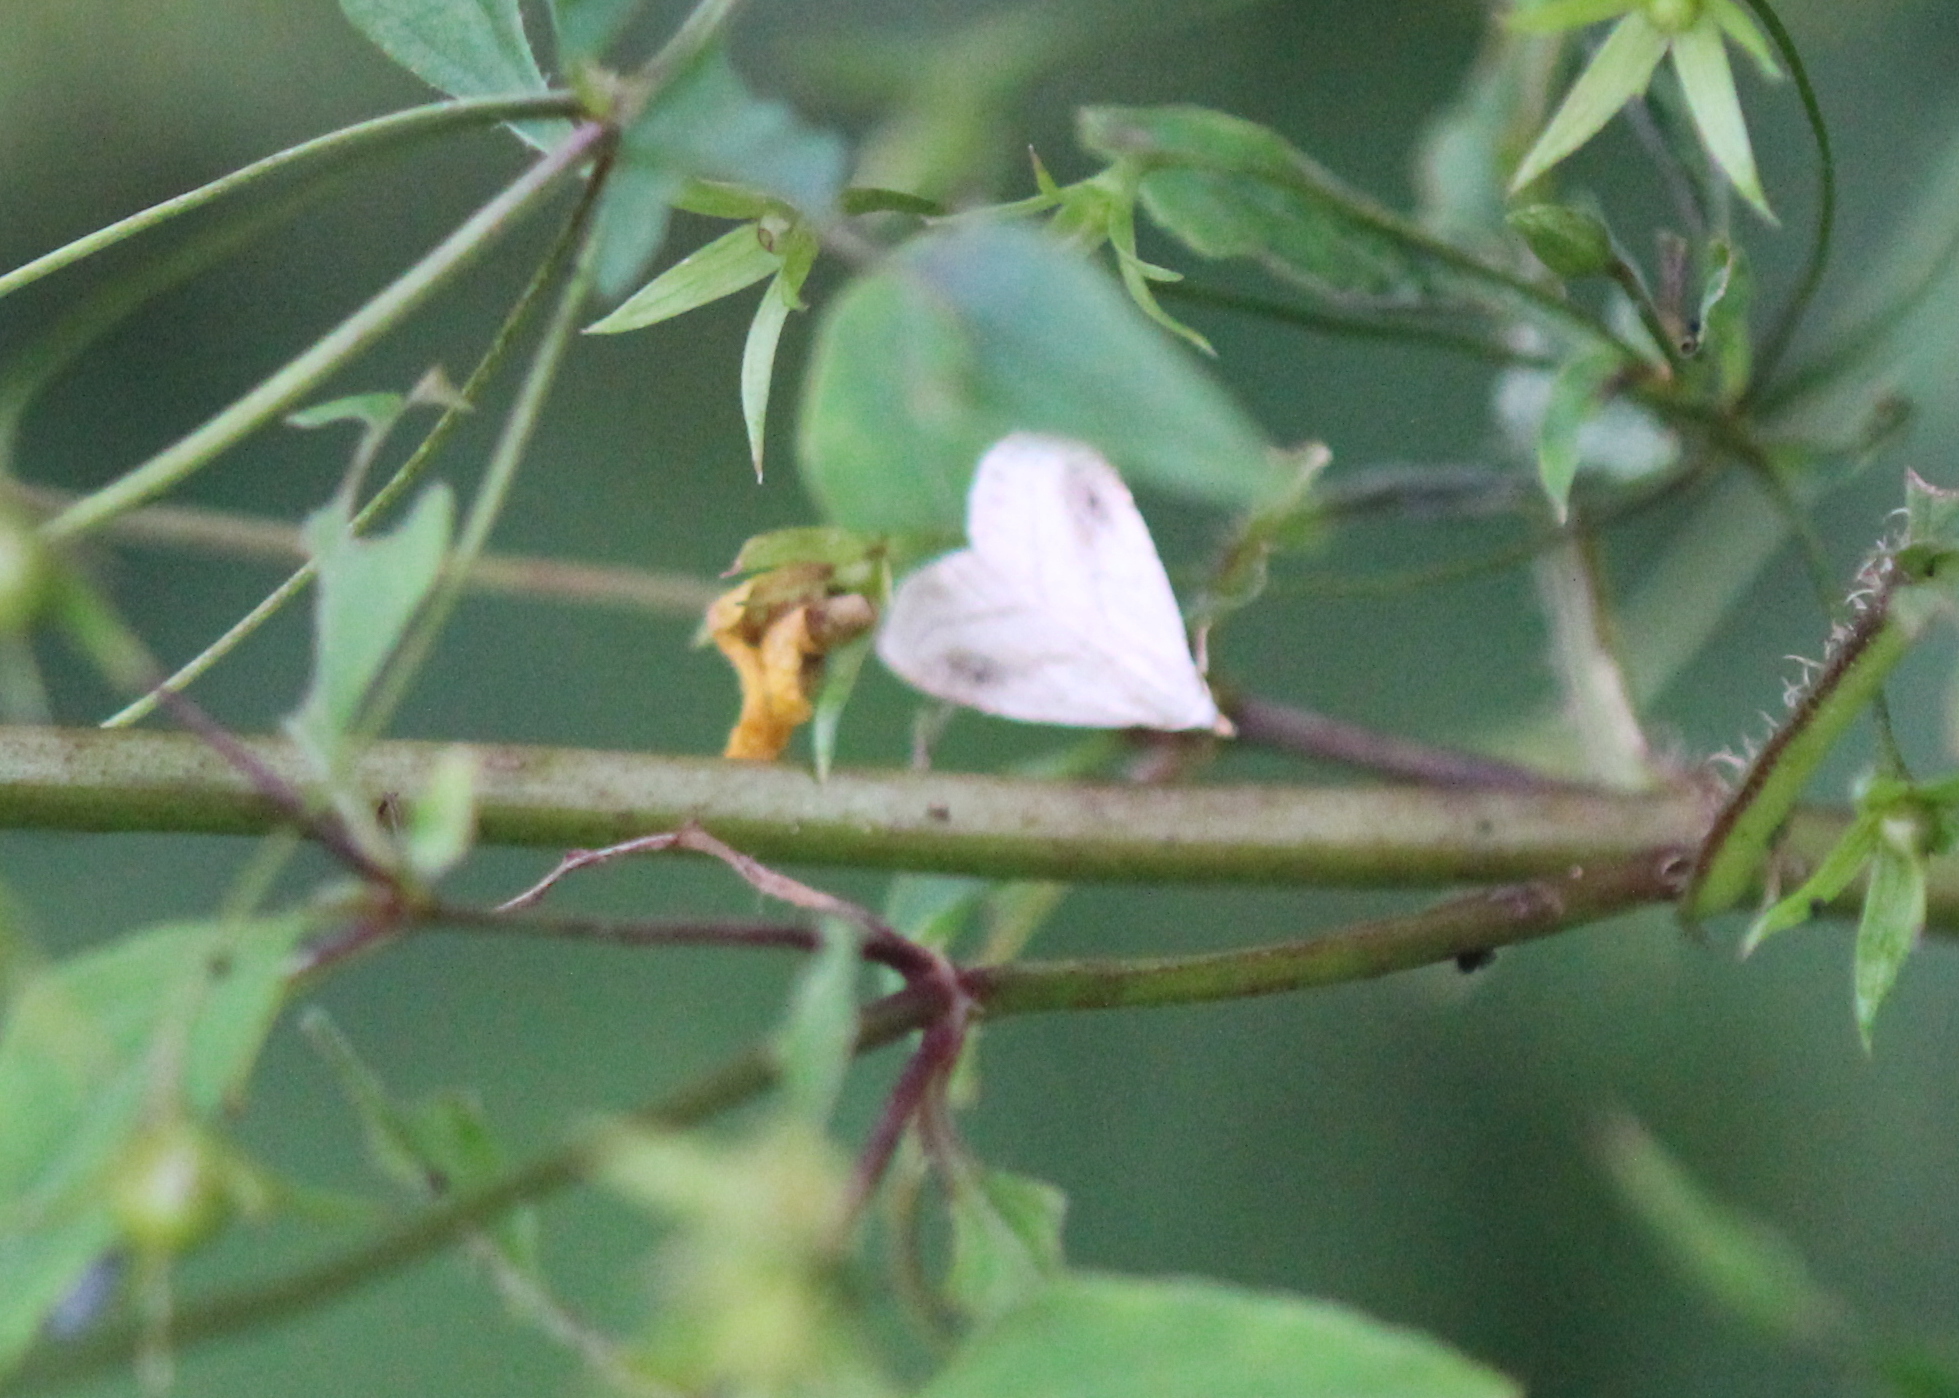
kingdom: Animalia
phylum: Arthropoda
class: Insecta
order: Lepidoptera
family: Erebidae
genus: Rivula
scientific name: Rivula propinqualis
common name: Spotted grass moth
